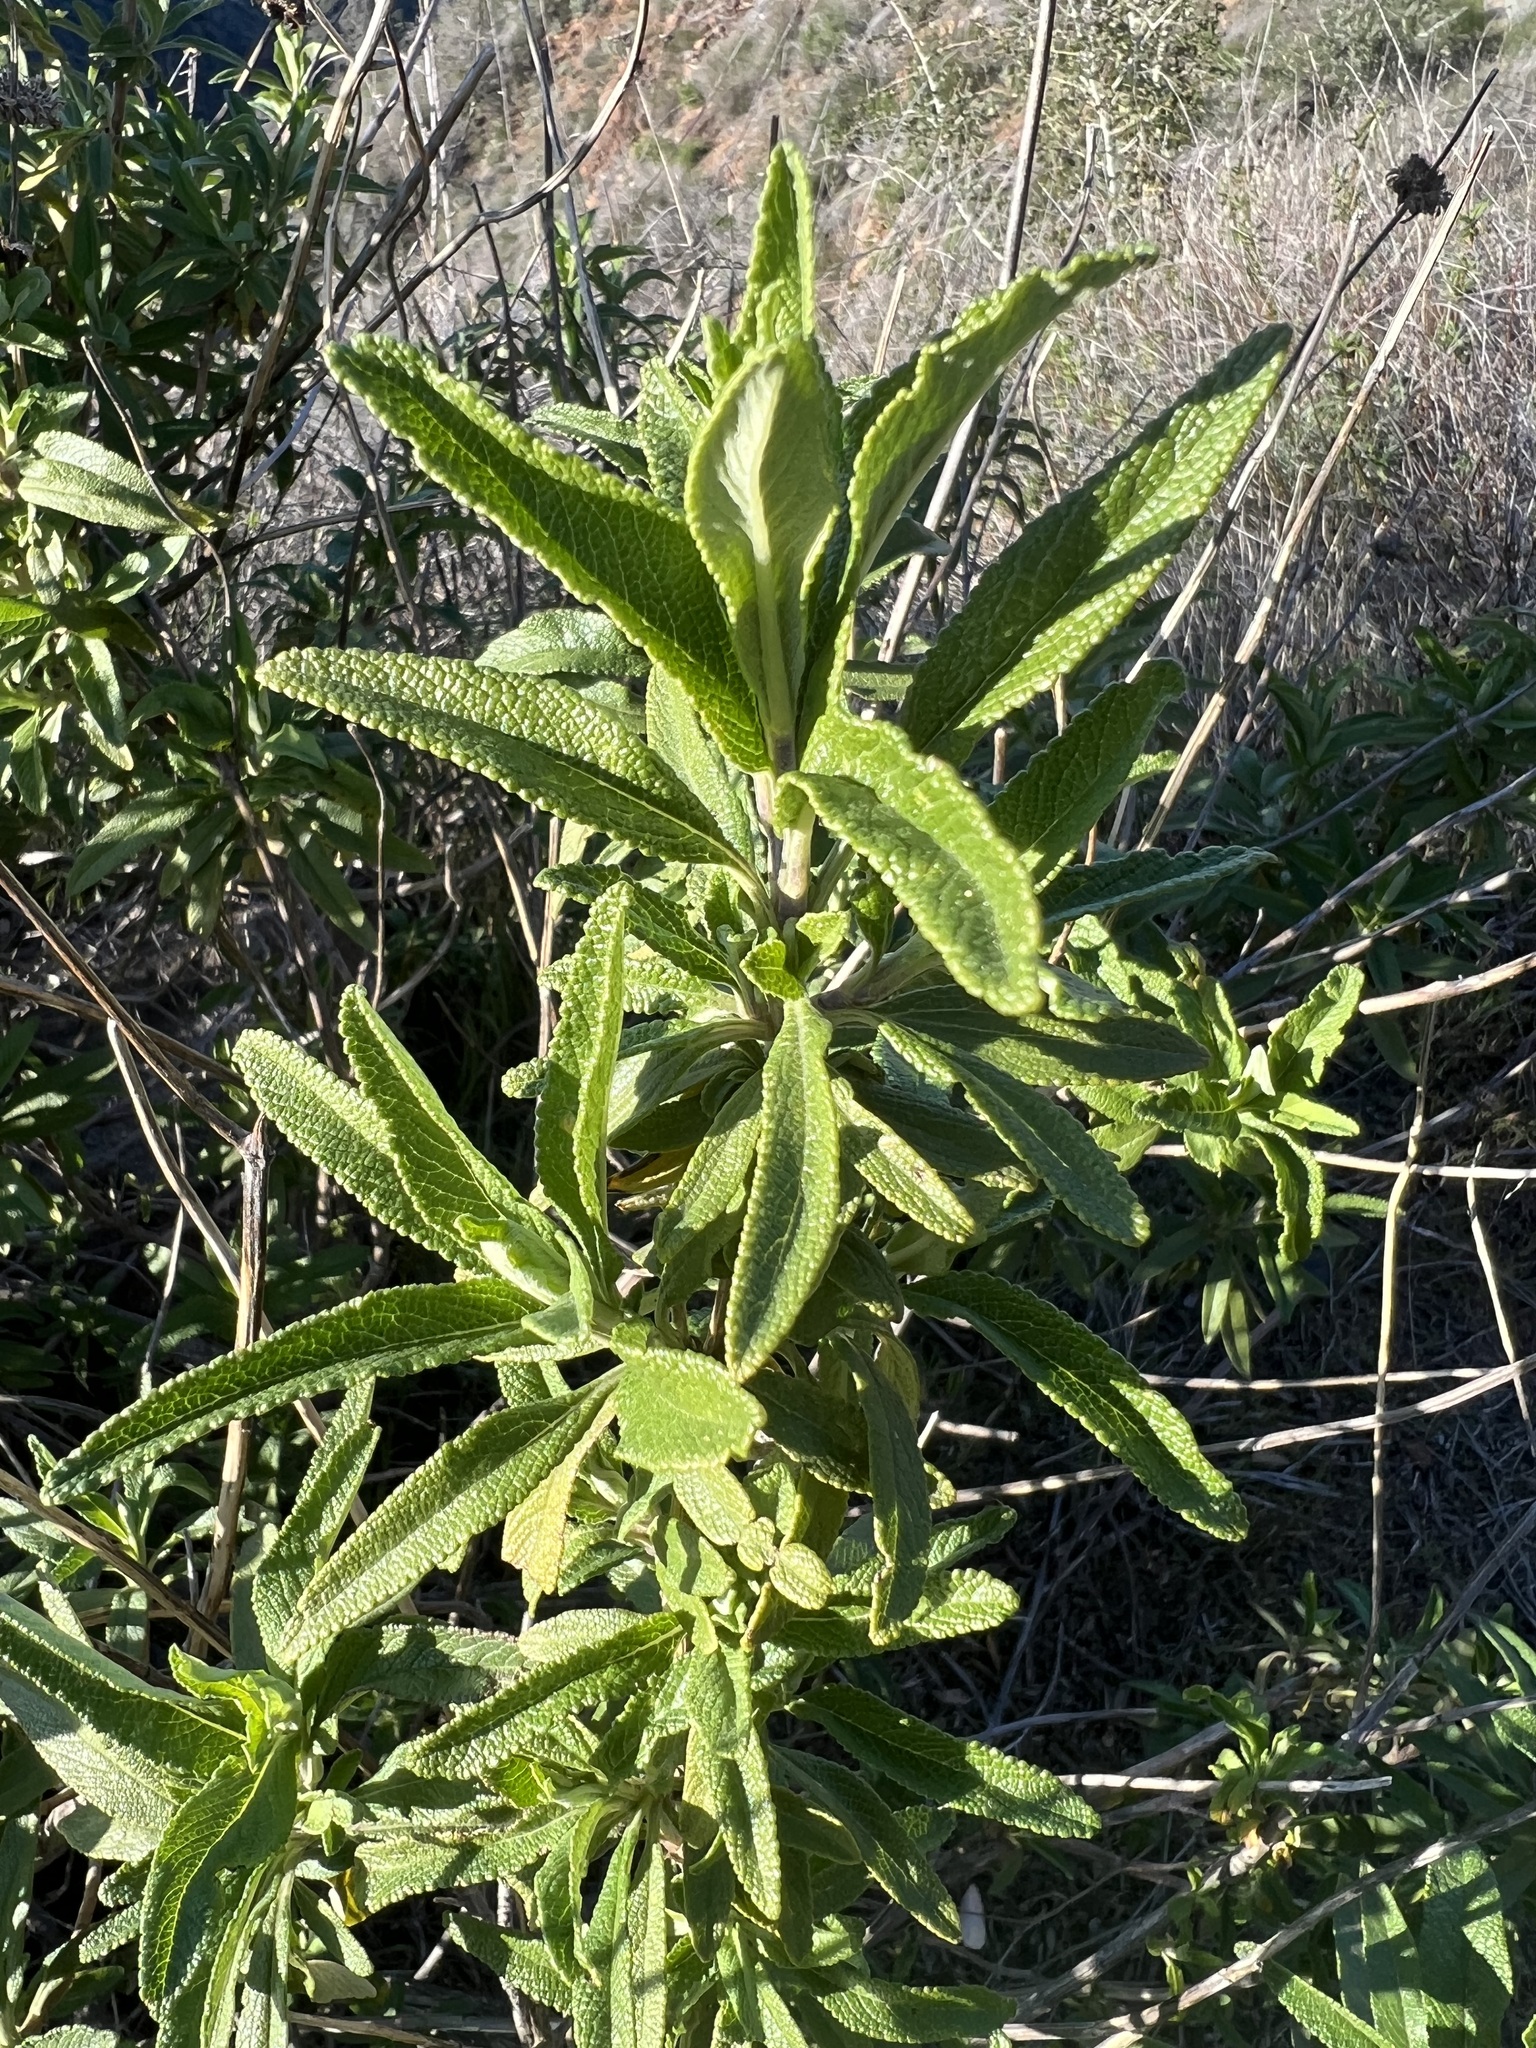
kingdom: Plantae
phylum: Tracheophyta
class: Magnoliopsida
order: Lamiales
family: Lamiaceae
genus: Salvia
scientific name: Salvia mellifera
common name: Black sage
